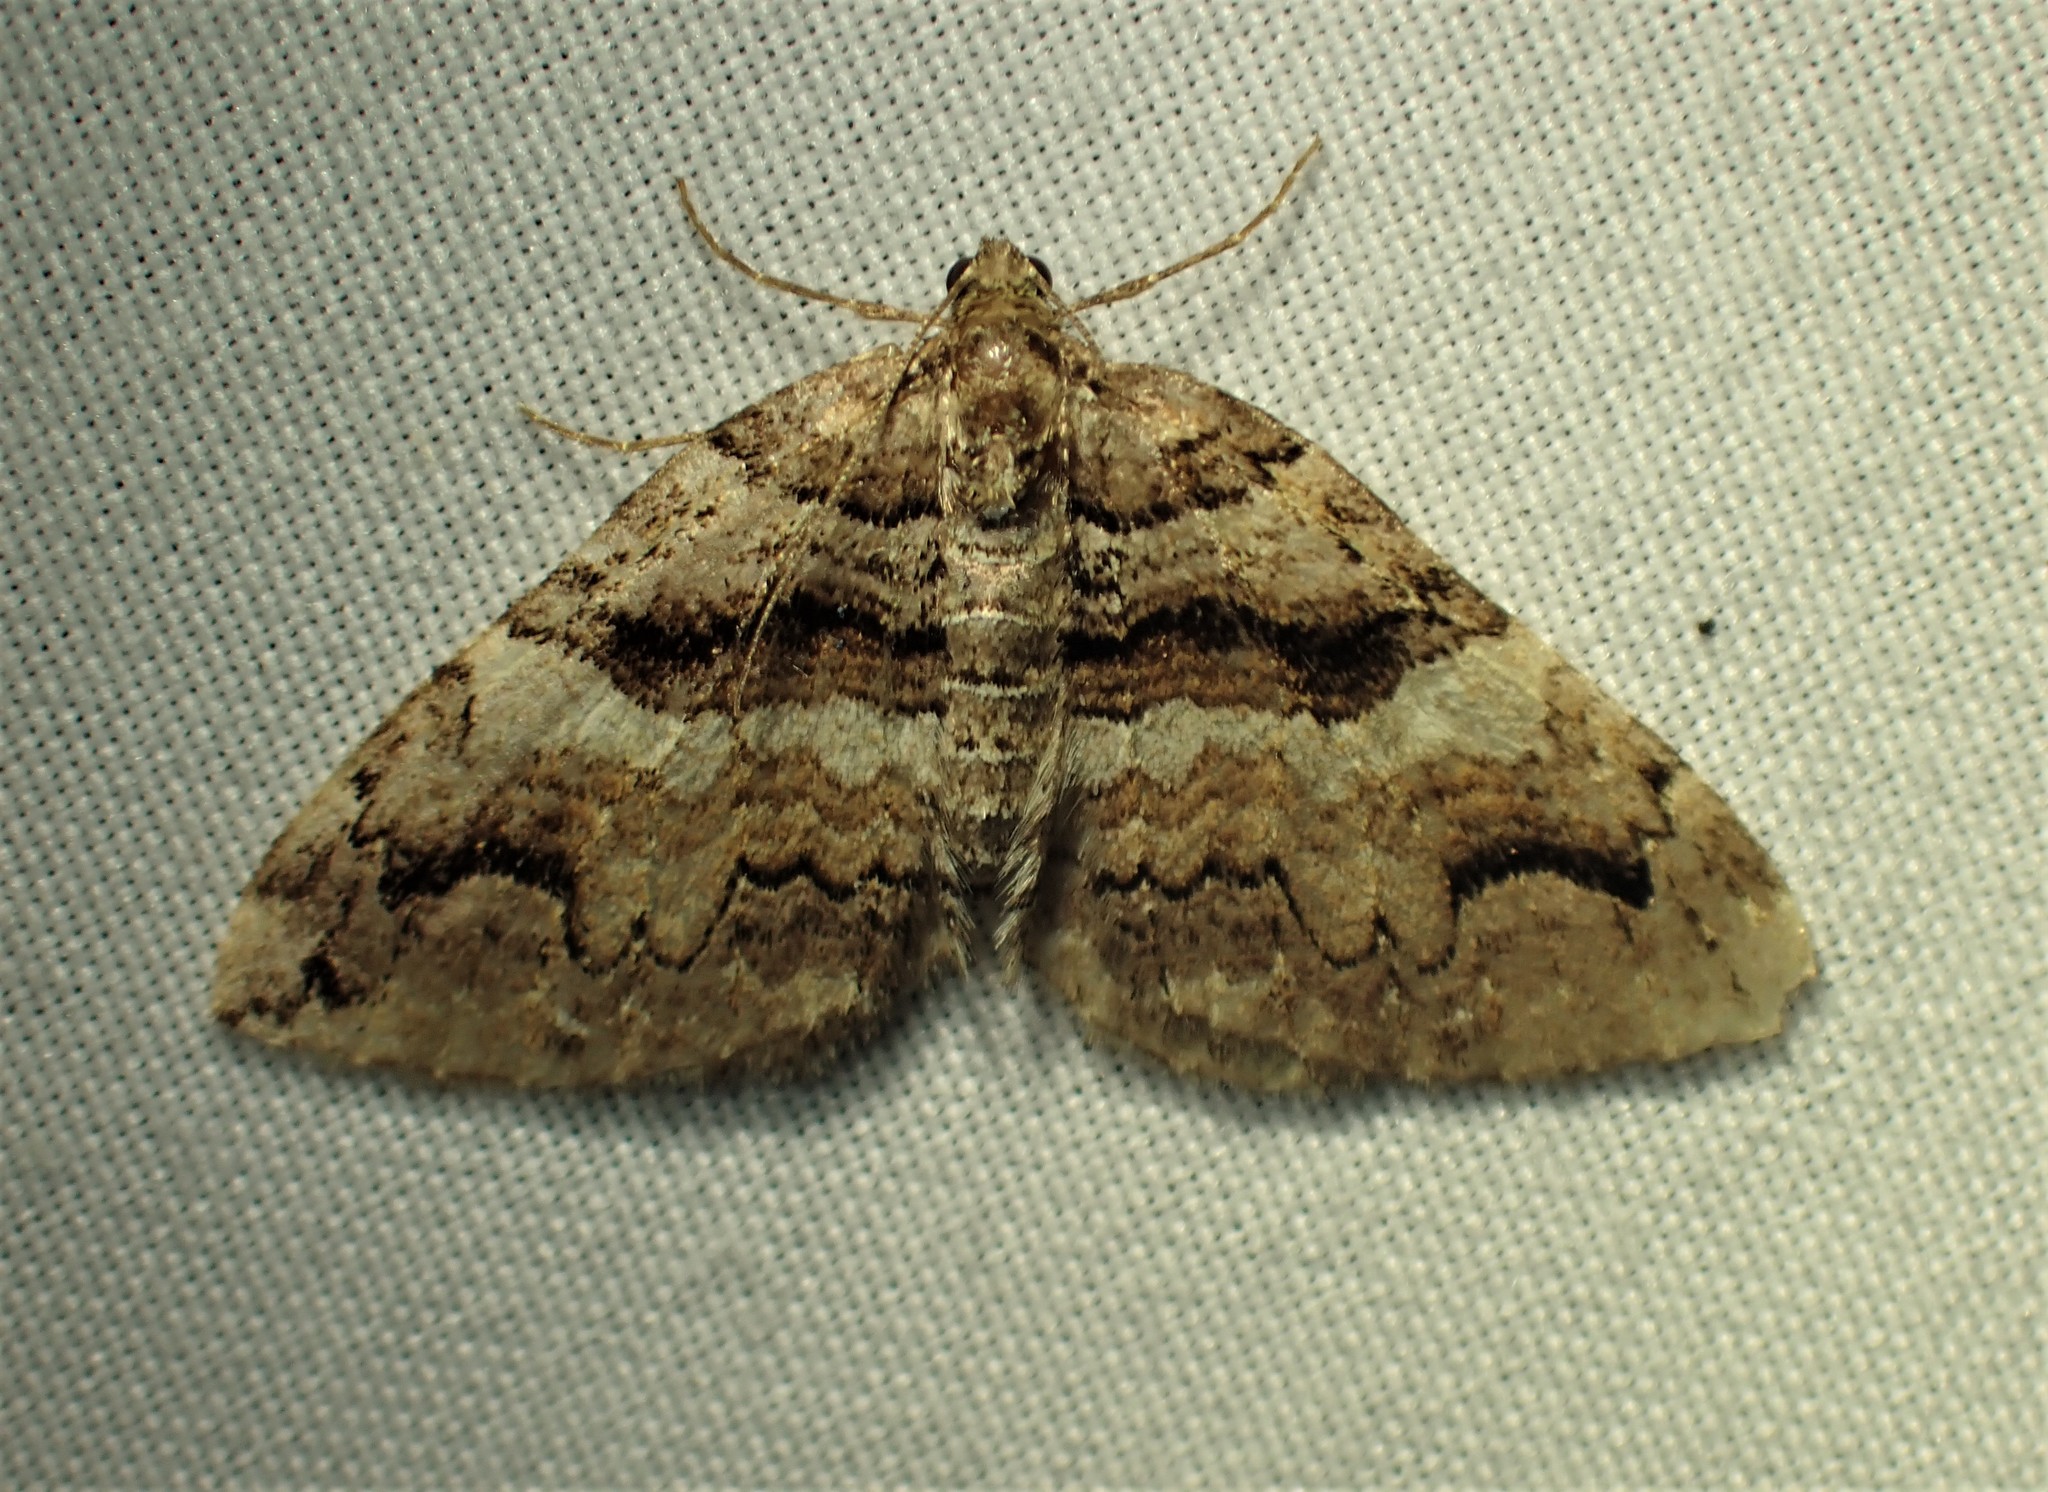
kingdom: Animalia
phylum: Arthropoda
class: Insecta
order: Lepidoptera
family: Geometridae
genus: Anticlea
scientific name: Anticlea vasiliata
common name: Variable carpet
